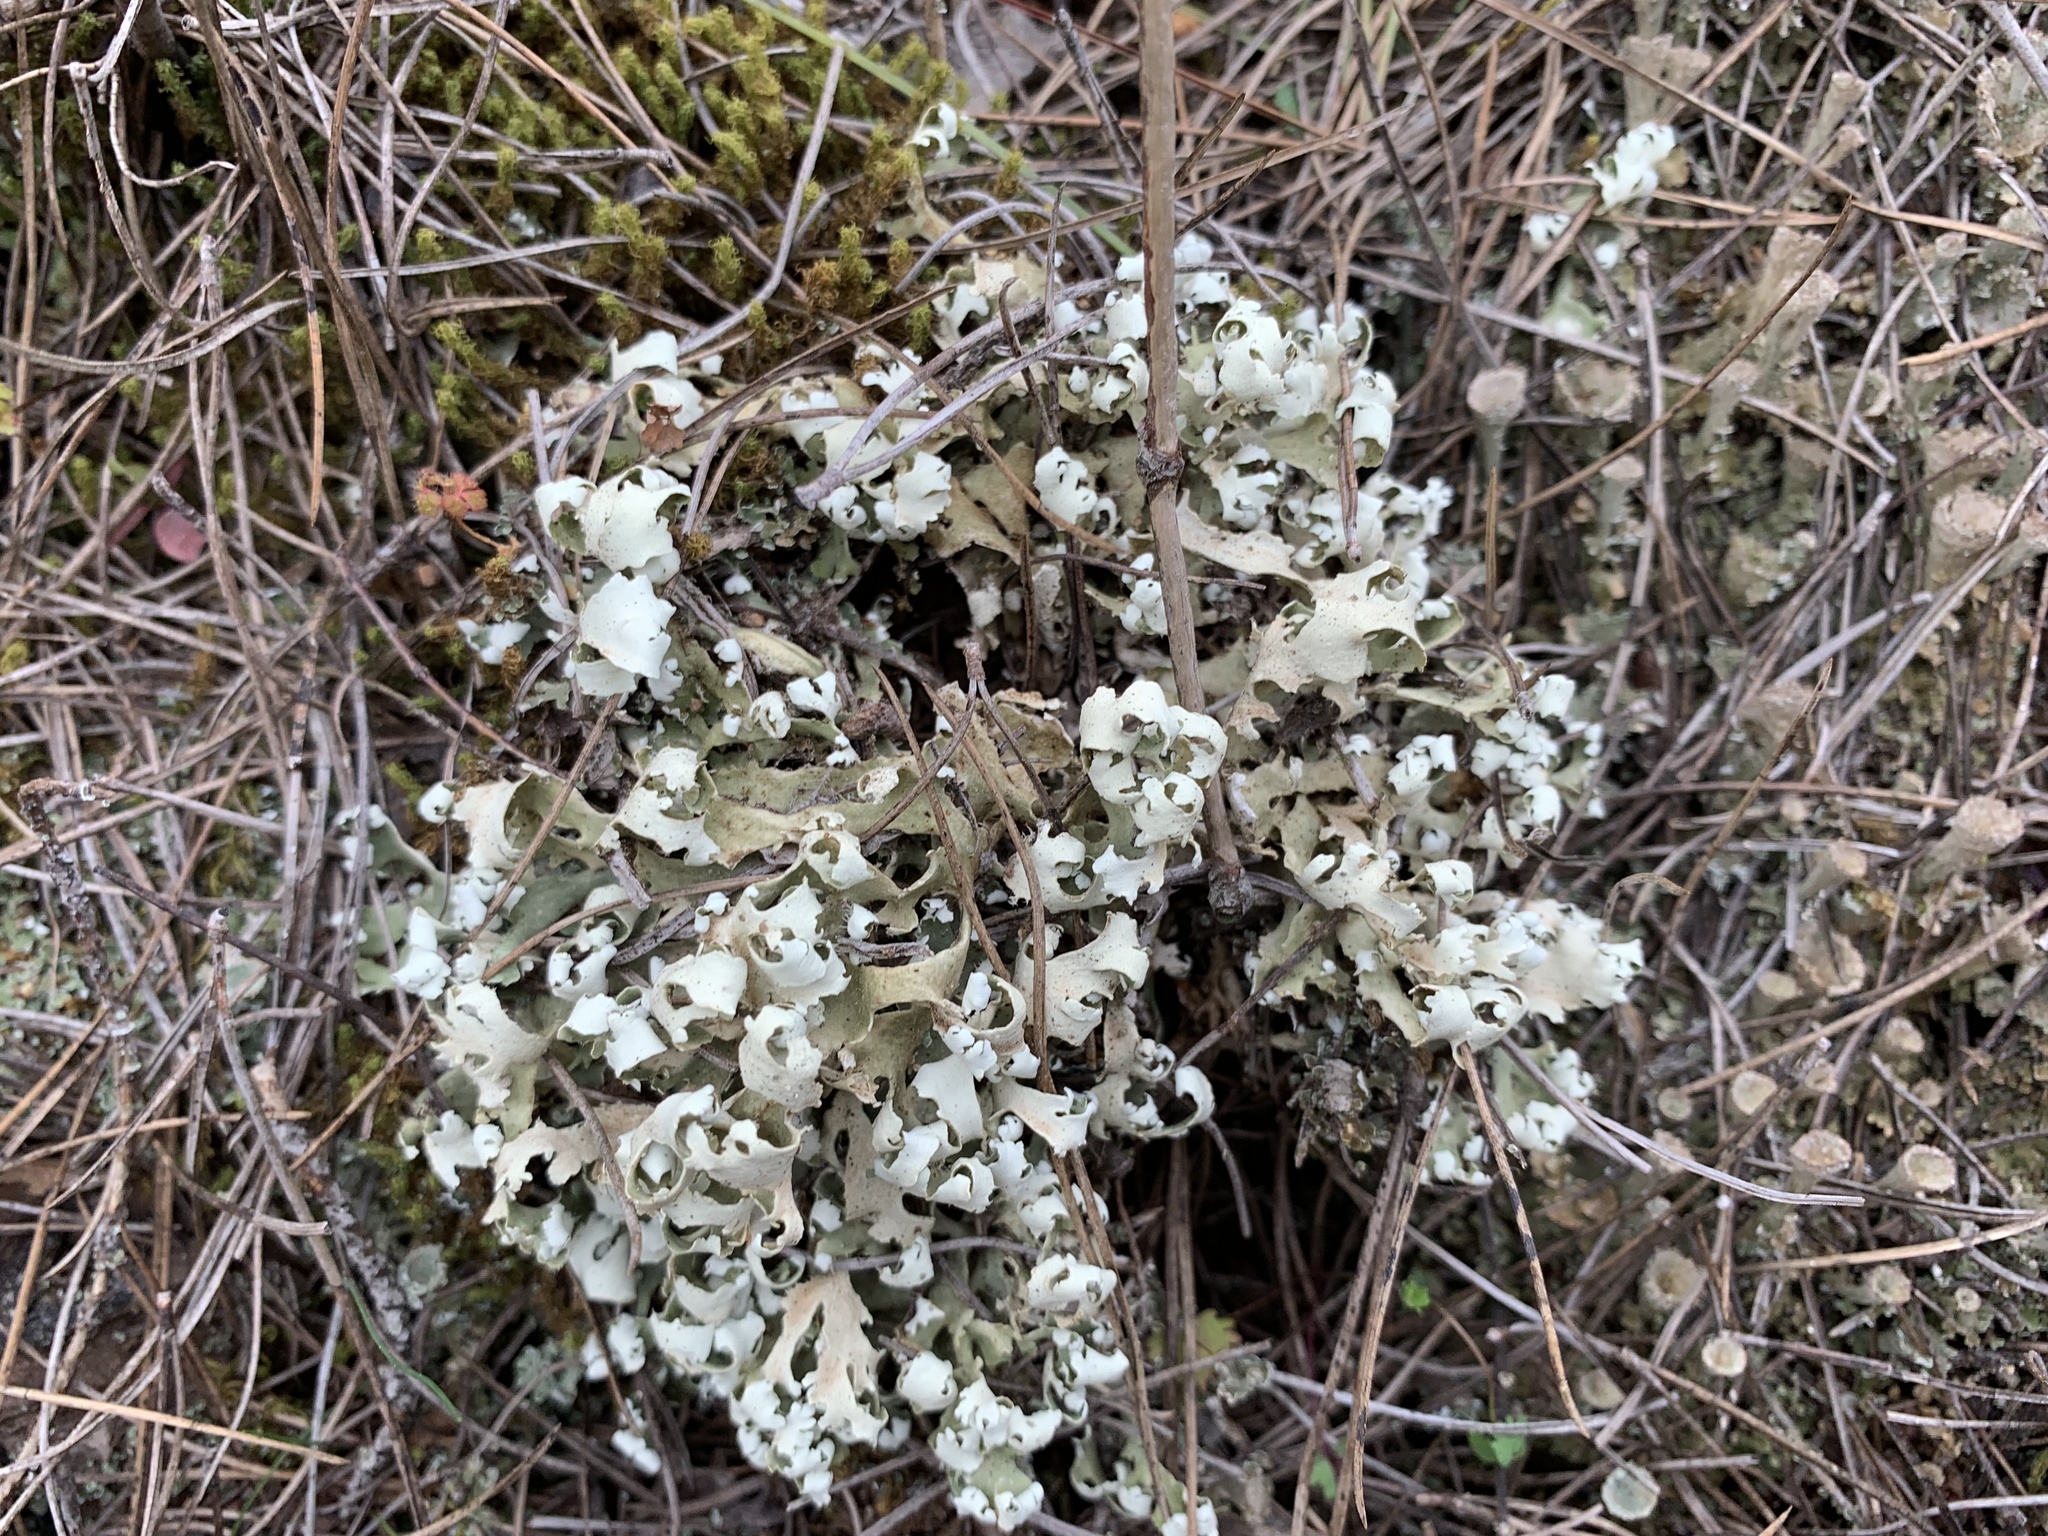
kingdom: Fungi
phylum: Ascomycota
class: Lecanoromycetes
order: Lecanorales
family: Cladoniaceae
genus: Cladonia
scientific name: Cladonia foliacea
